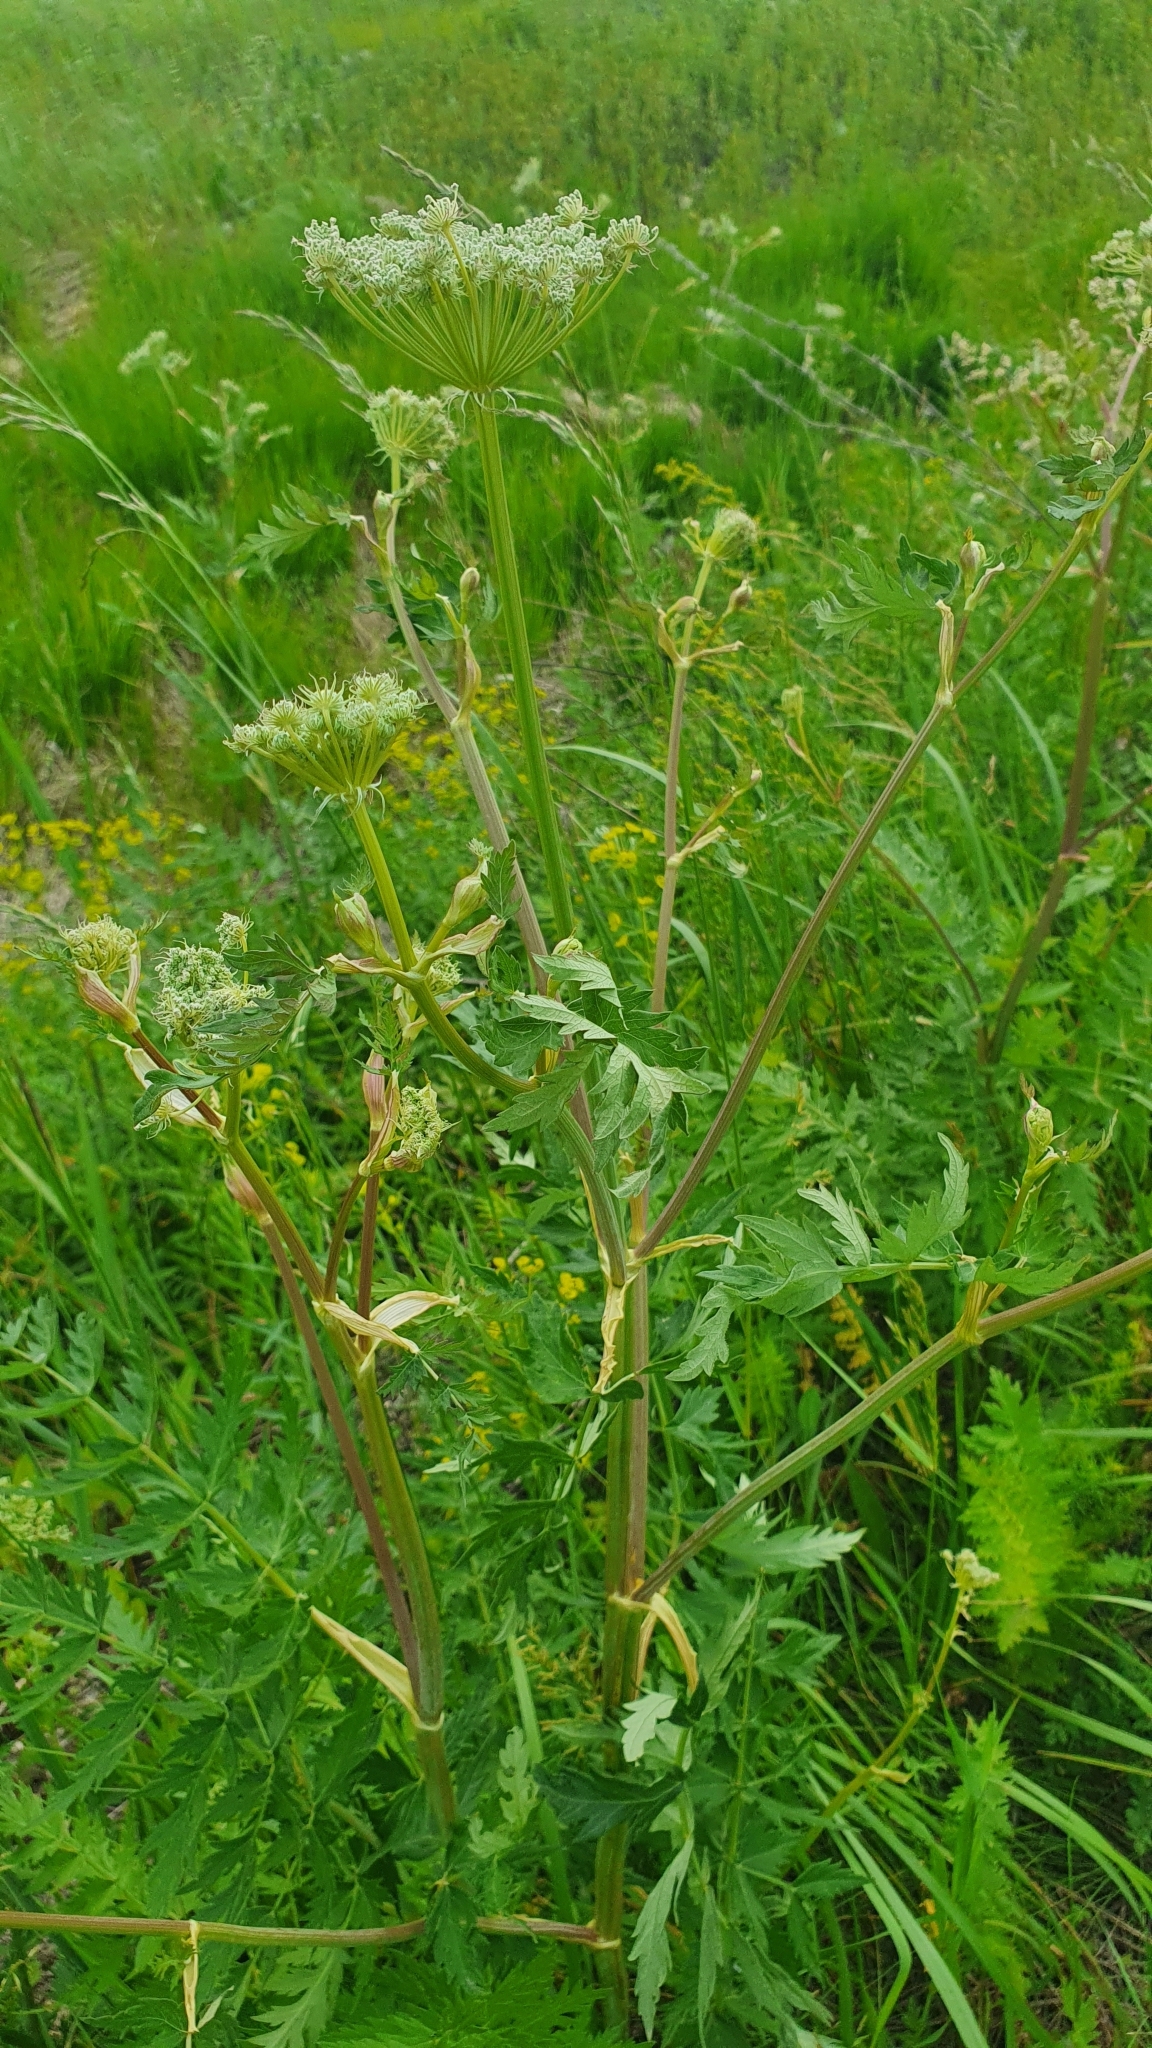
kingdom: Plantae
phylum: Tracheophyta
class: Magnoliopsida
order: Apiales
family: Apiaceae
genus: Seseli
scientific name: Seseli libanotis
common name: Mooncarrot
